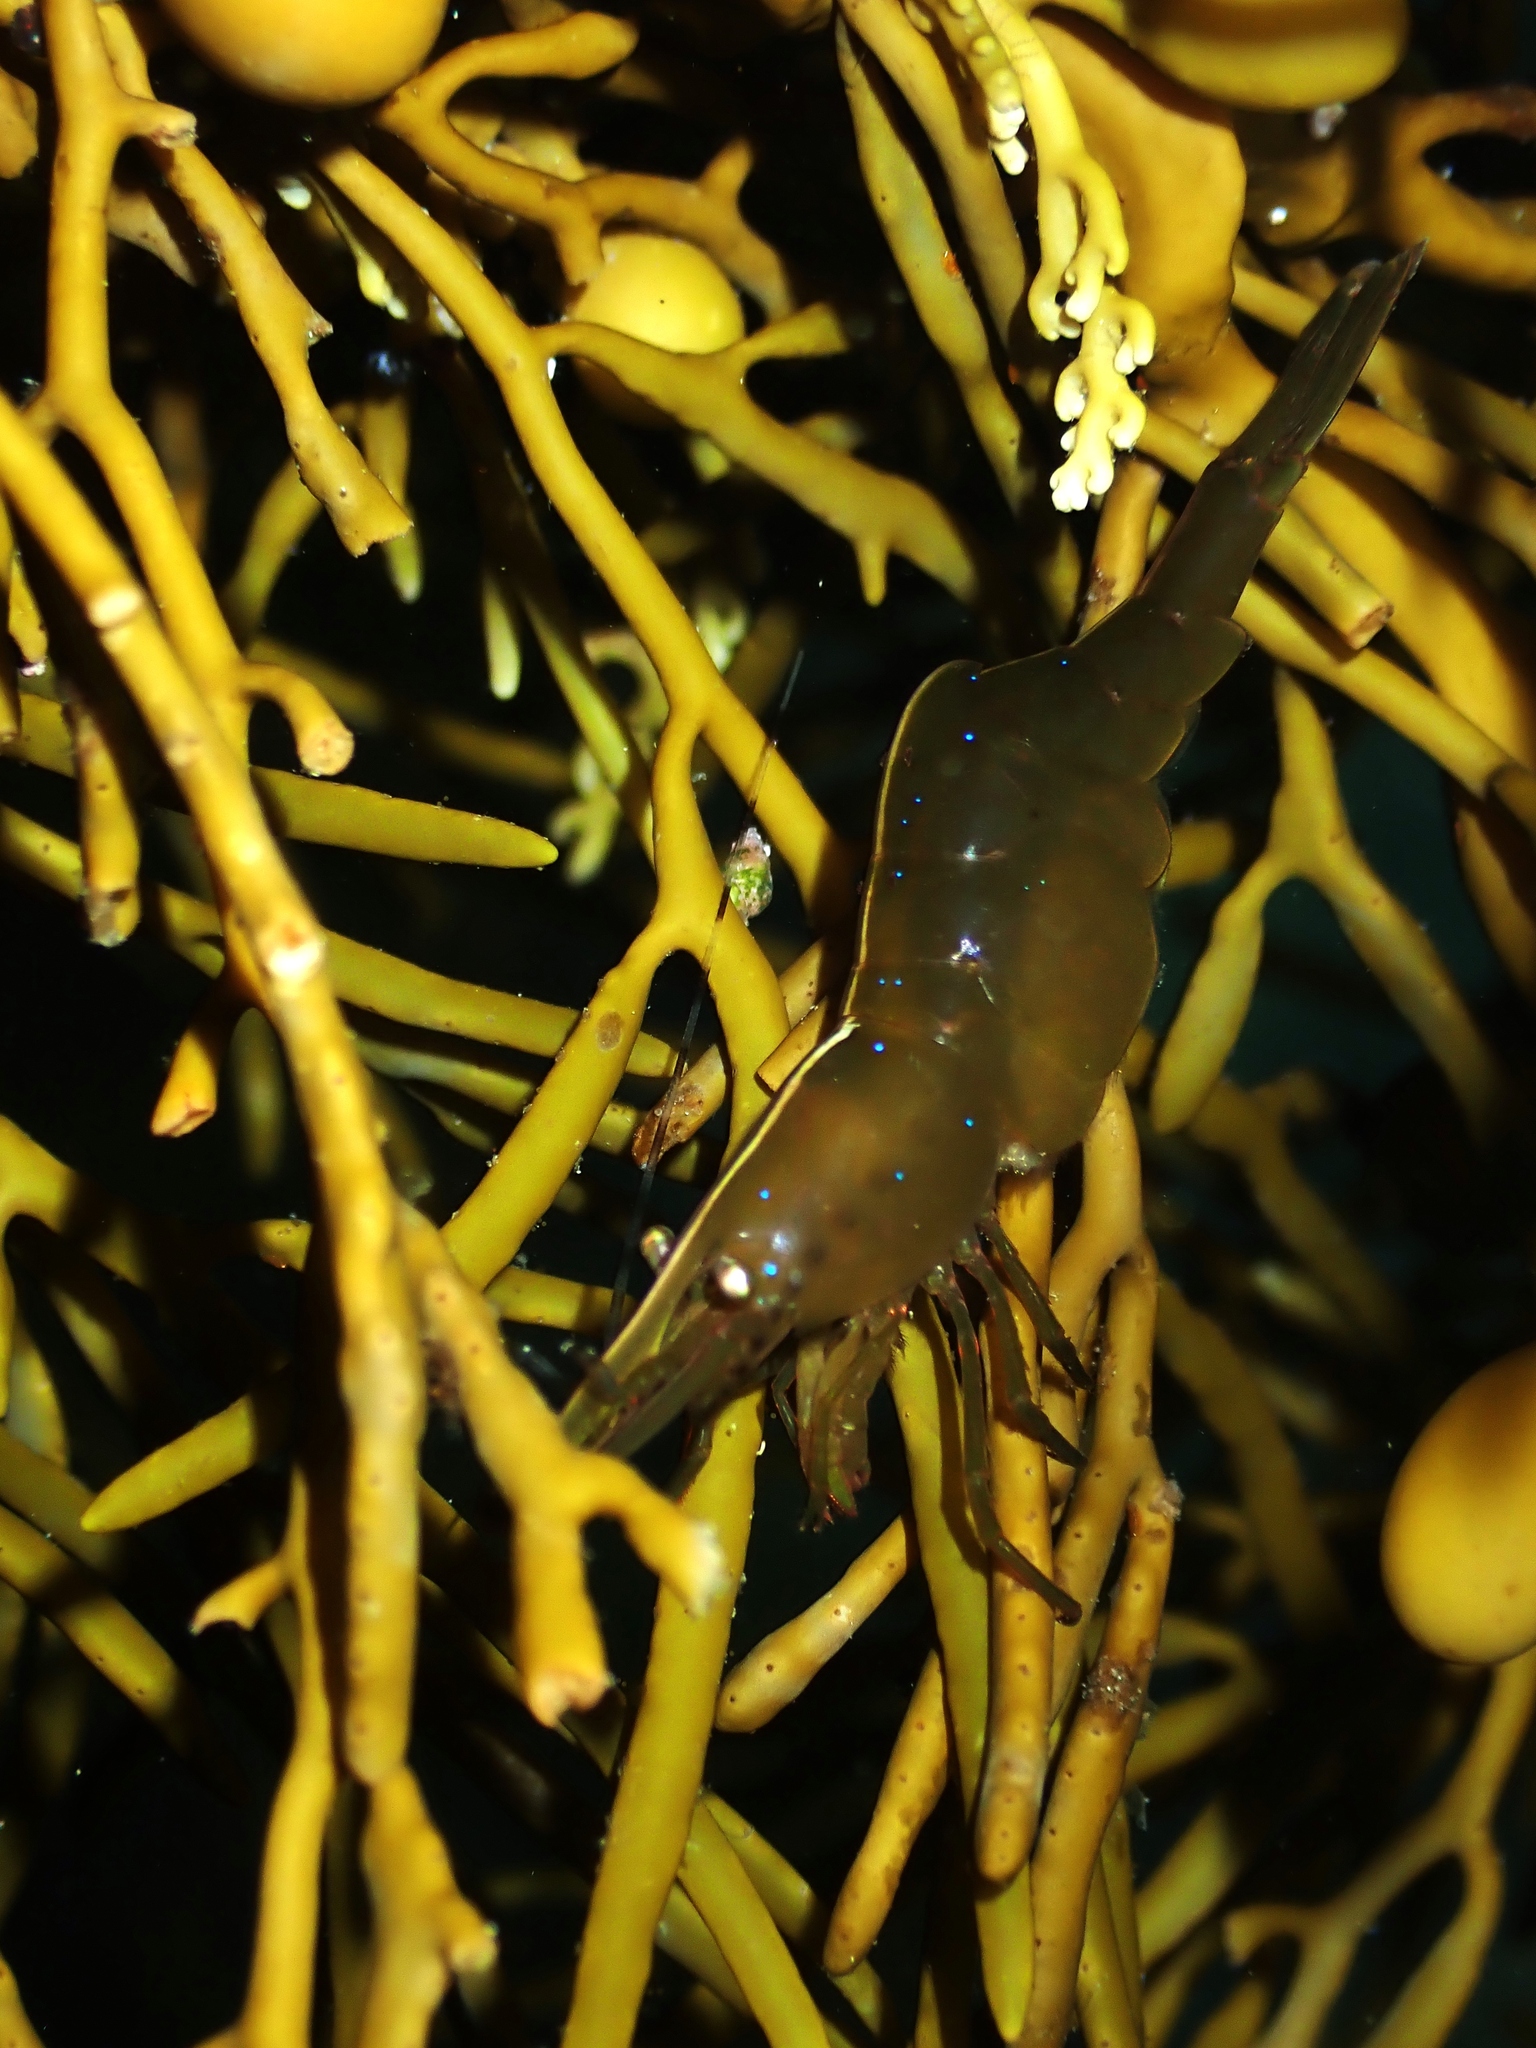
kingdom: Animalia
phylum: Arthropoda
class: Malacostraca
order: Decapoda
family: Hippolytidae
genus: Hippolyte
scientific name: Hippolyte multicolorata
